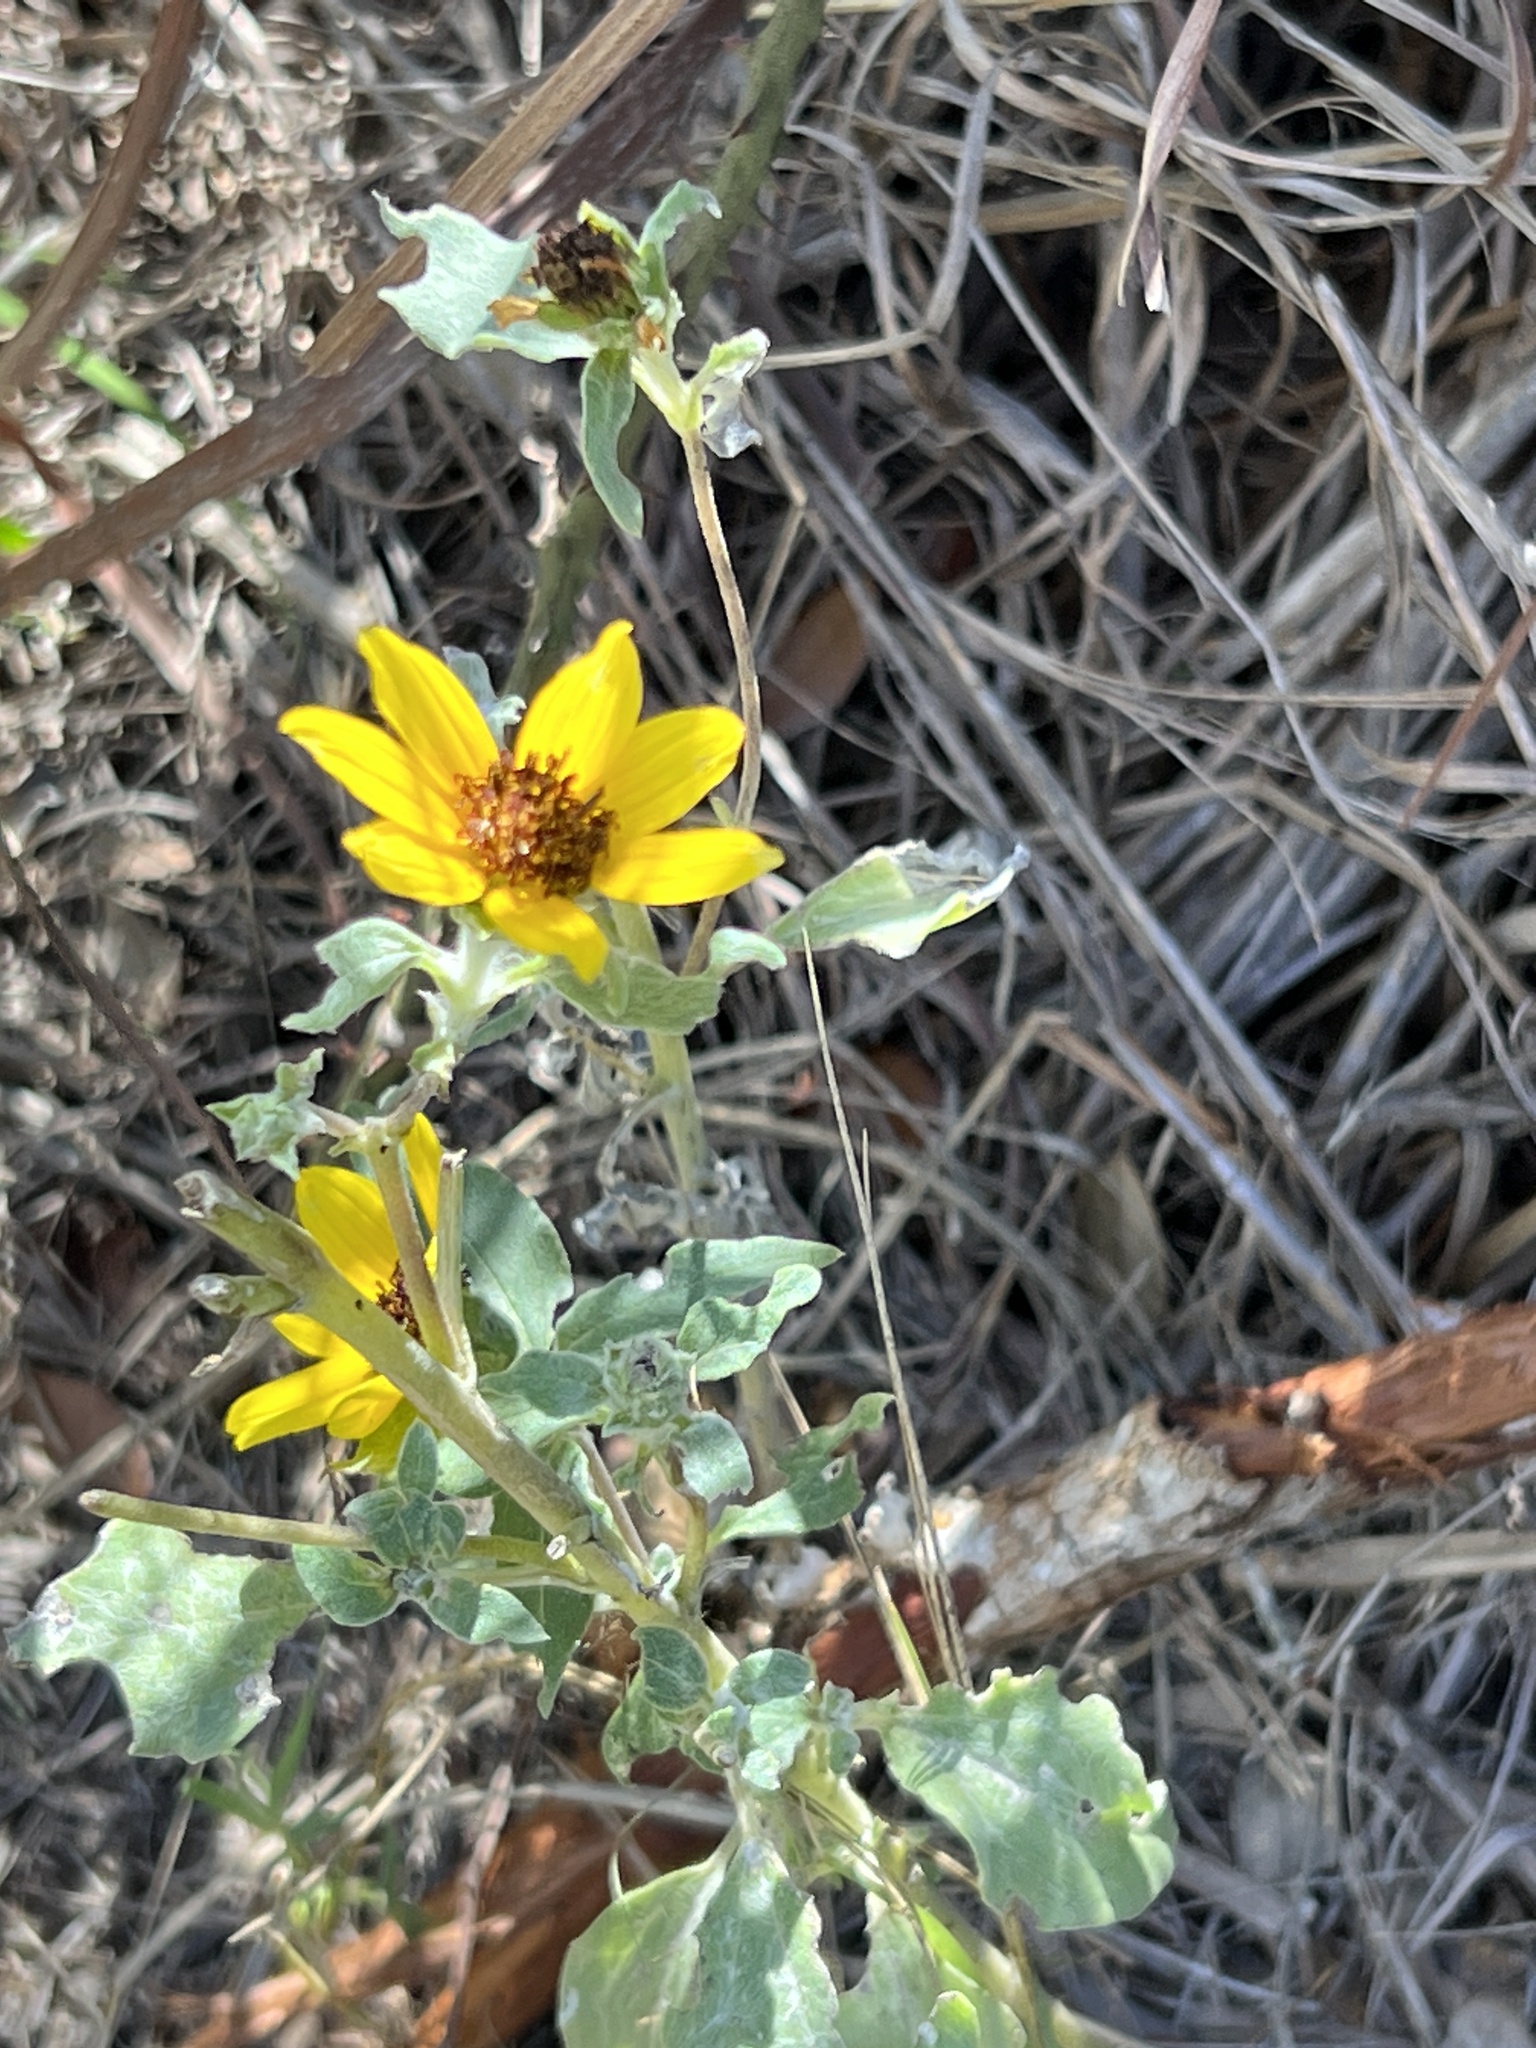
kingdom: Plantae
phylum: Tracheophyta
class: Magnoliopsida
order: Asterales
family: Asteraceae
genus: Helianthus
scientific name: Helianthus argophyllus
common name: Silverleaf sunflower
